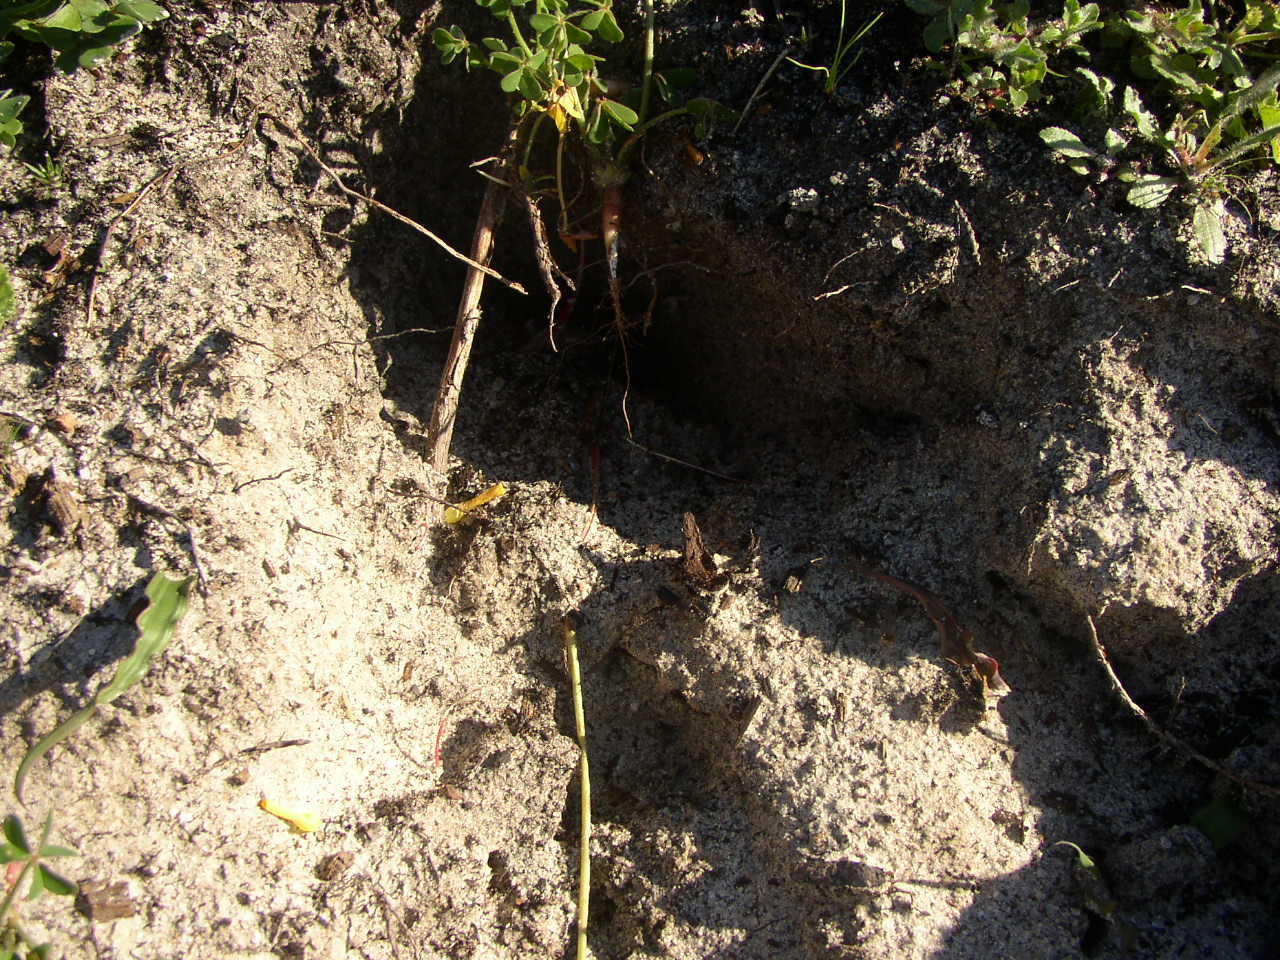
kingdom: Animalia
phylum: Chordata
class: Mammalia
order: Rodentia
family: Hystricidae
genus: Hystrix
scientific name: Hystrix africaeaustralis
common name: Cape porcupine
